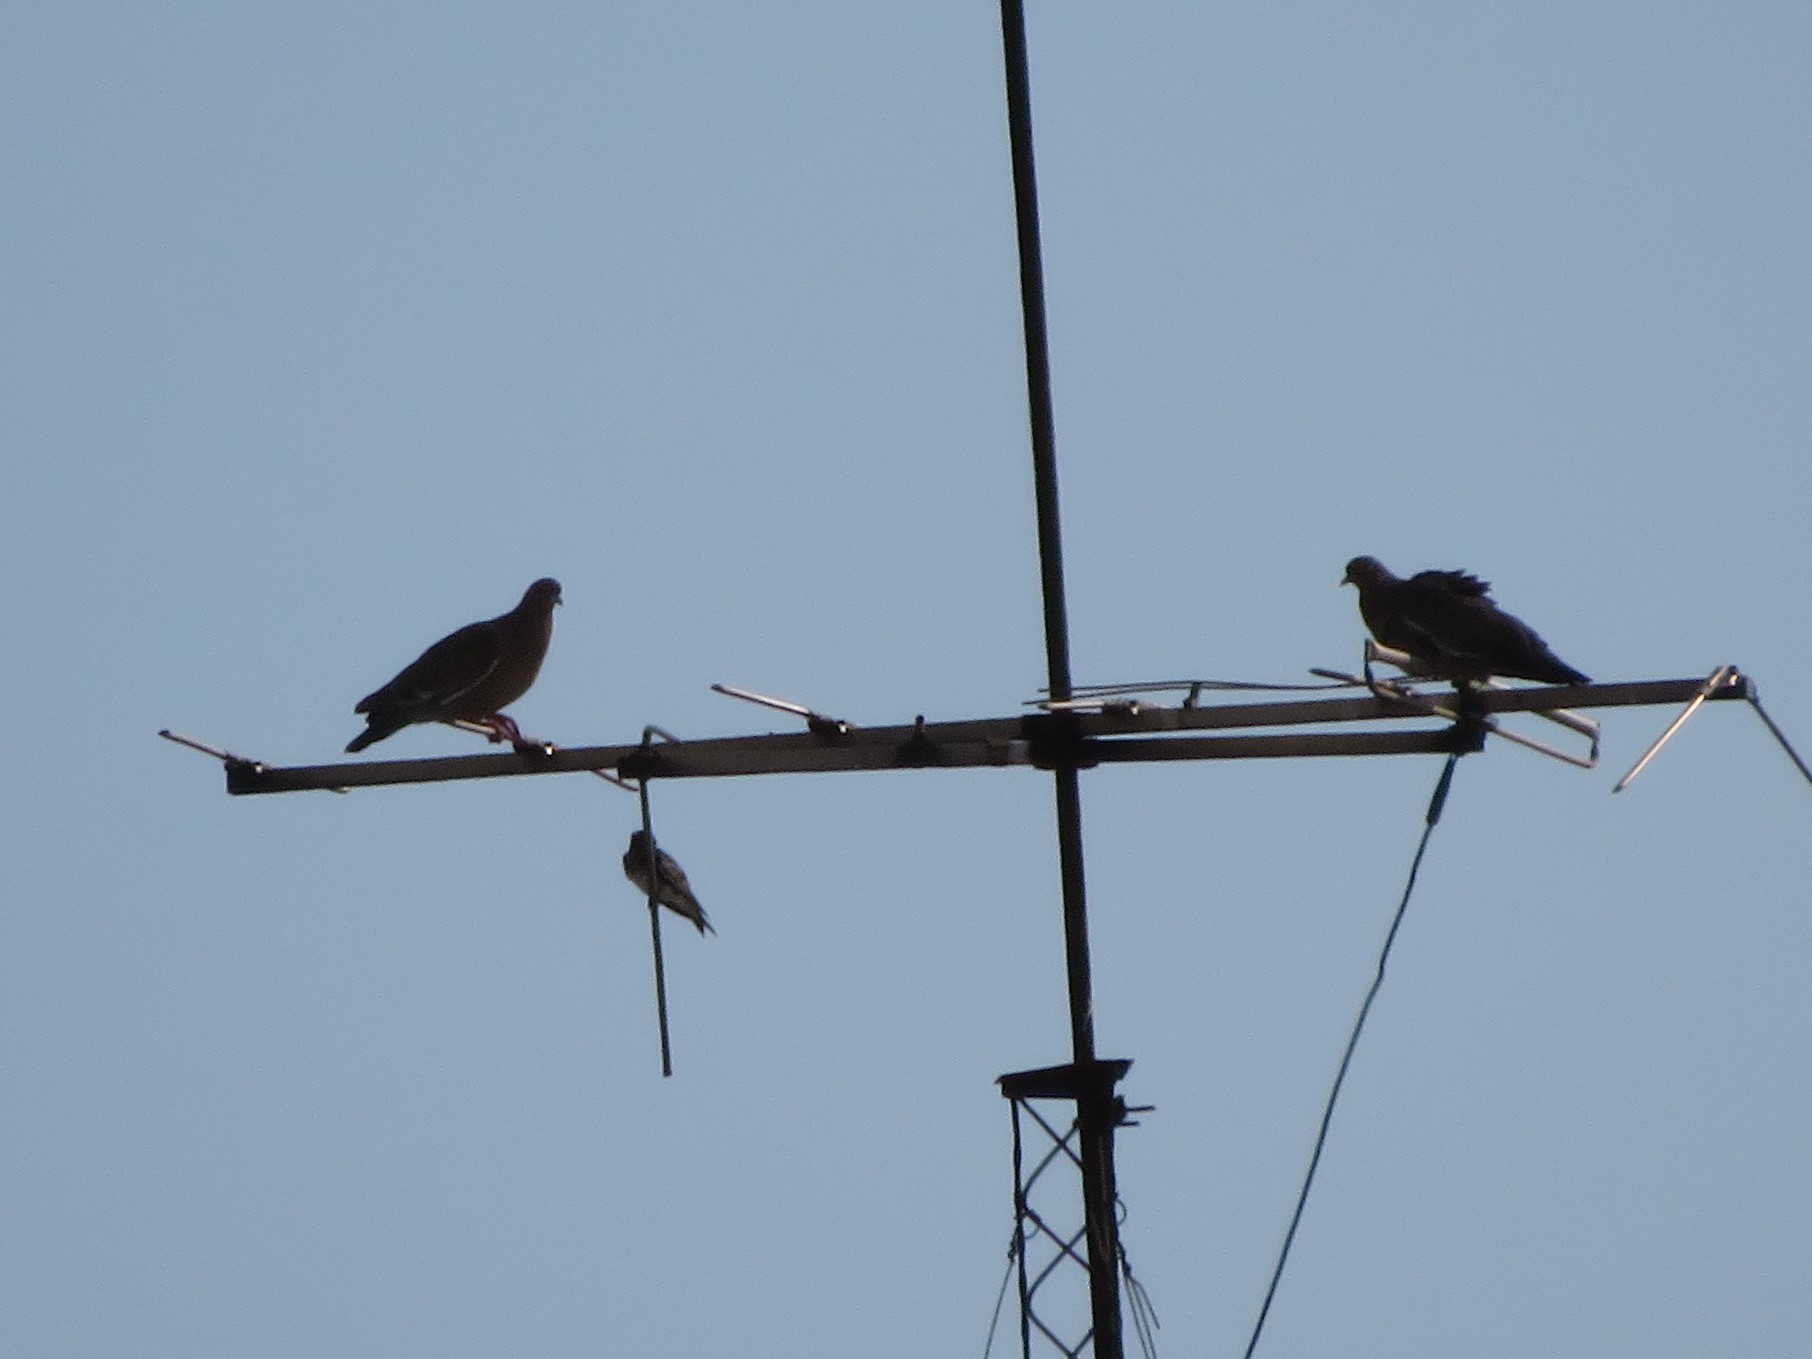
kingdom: Animalia
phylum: Chordata
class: Aves
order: Columbiformes
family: Columbidae
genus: Patagioenas
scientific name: Patagioenas picazuro
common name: Picazuro pigeon
